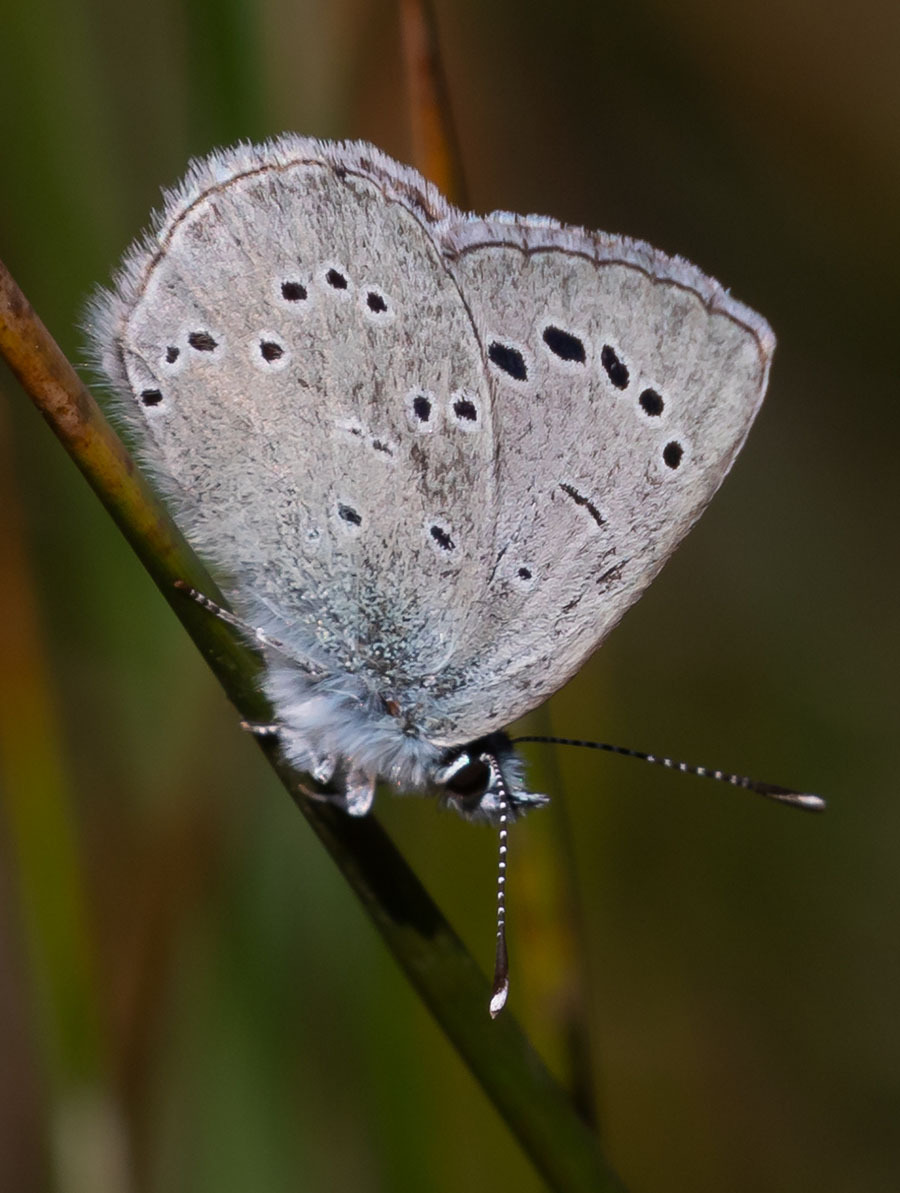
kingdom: Animalia
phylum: Arthropoda
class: Insecta
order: Lepidoptera
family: Lycaenidae
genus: Glaucopsyche
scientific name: Glaucopsyche lygdamus
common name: Silvery blue
